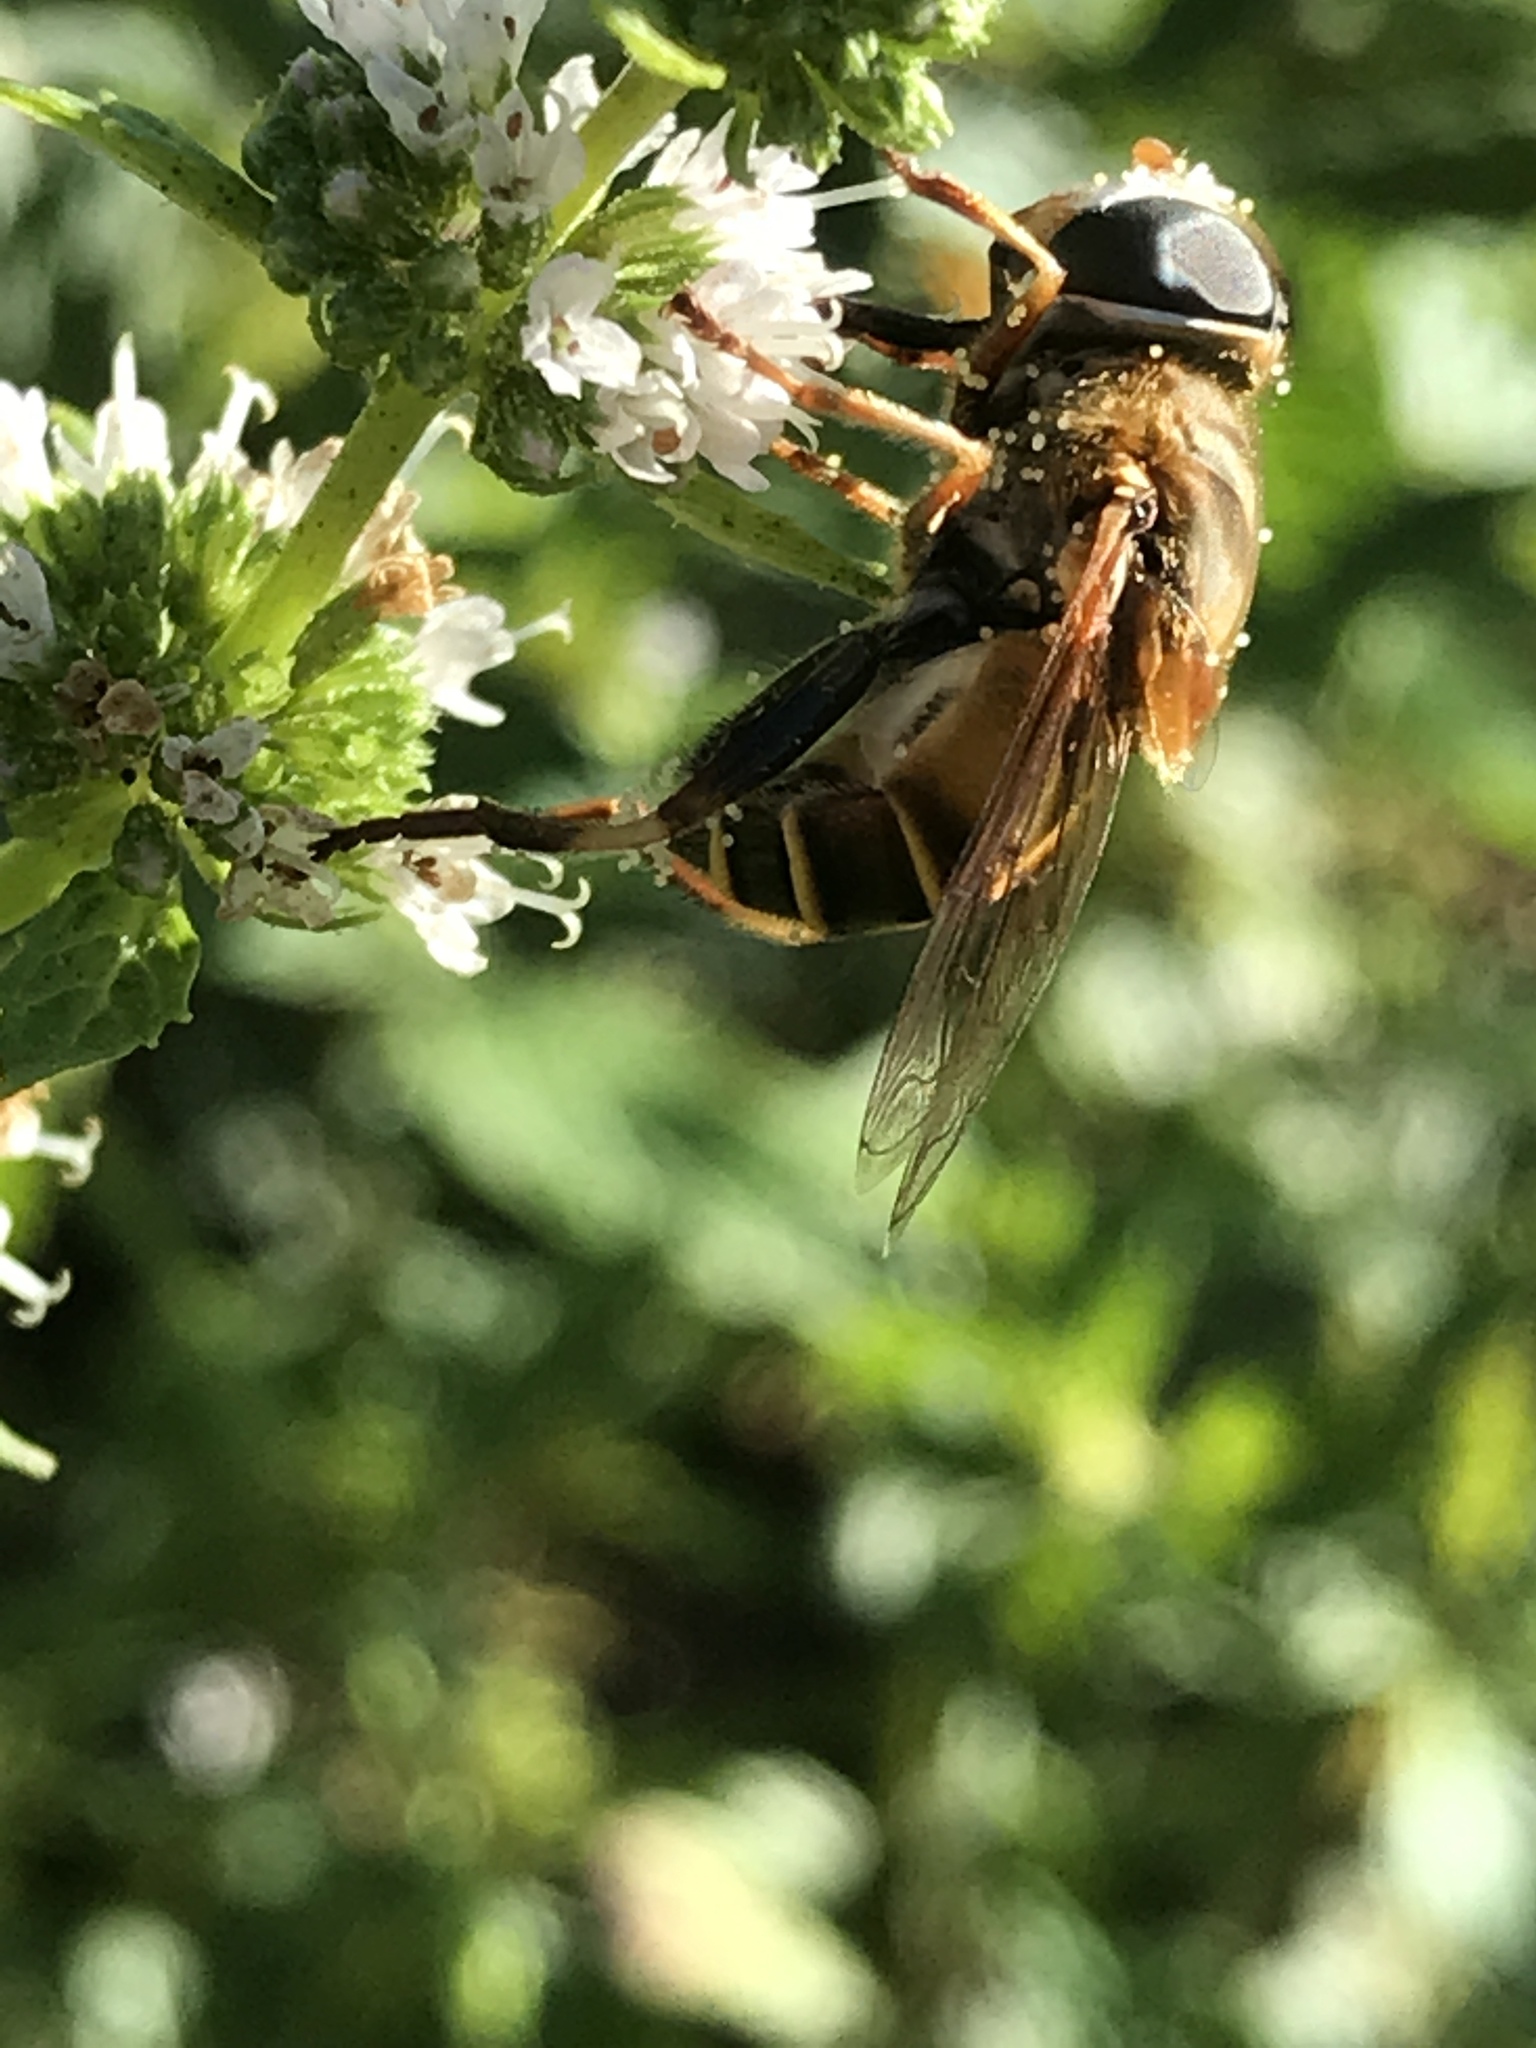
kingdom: Animalia
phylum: Arthropoda
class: Insecta
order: Diptera
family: Syrphidae
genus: Palpada
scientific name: Palpada vinetorum
